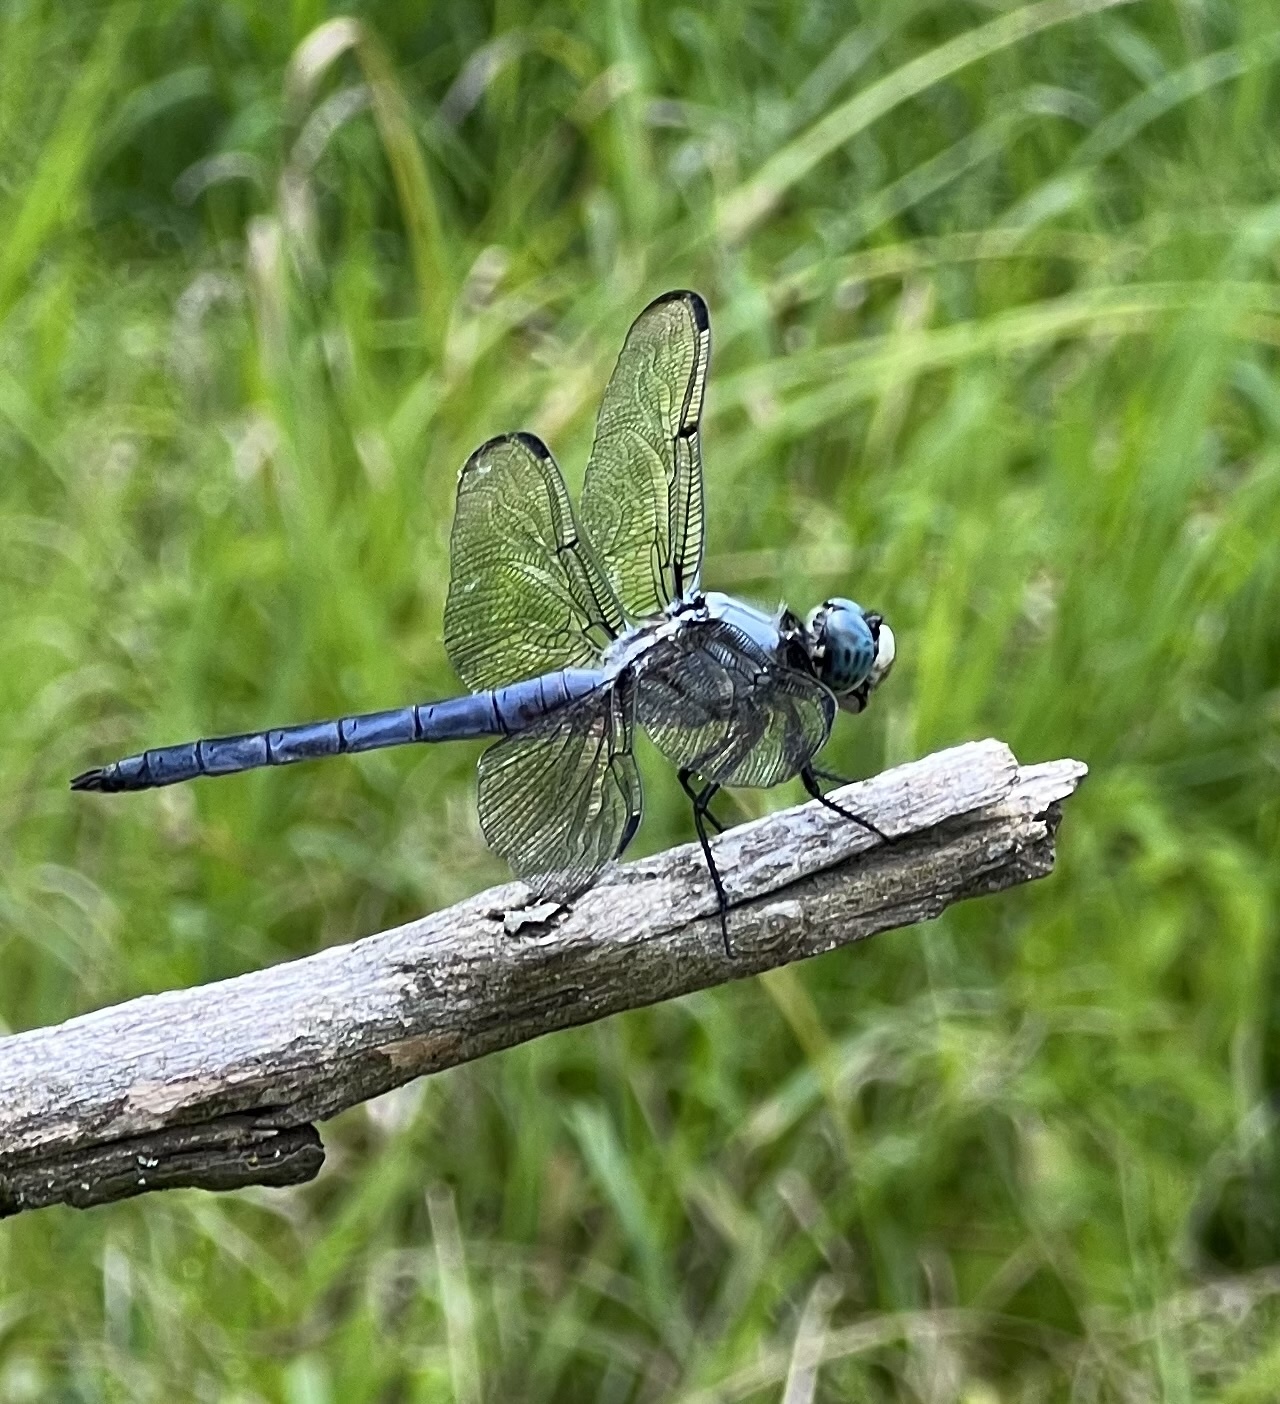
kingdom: Animalia
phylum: Arthropoda
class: Insecta
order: Odonata
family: Libellulidae
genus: Libellula
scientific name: Libellula vibrans
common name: Great blue skimmer
